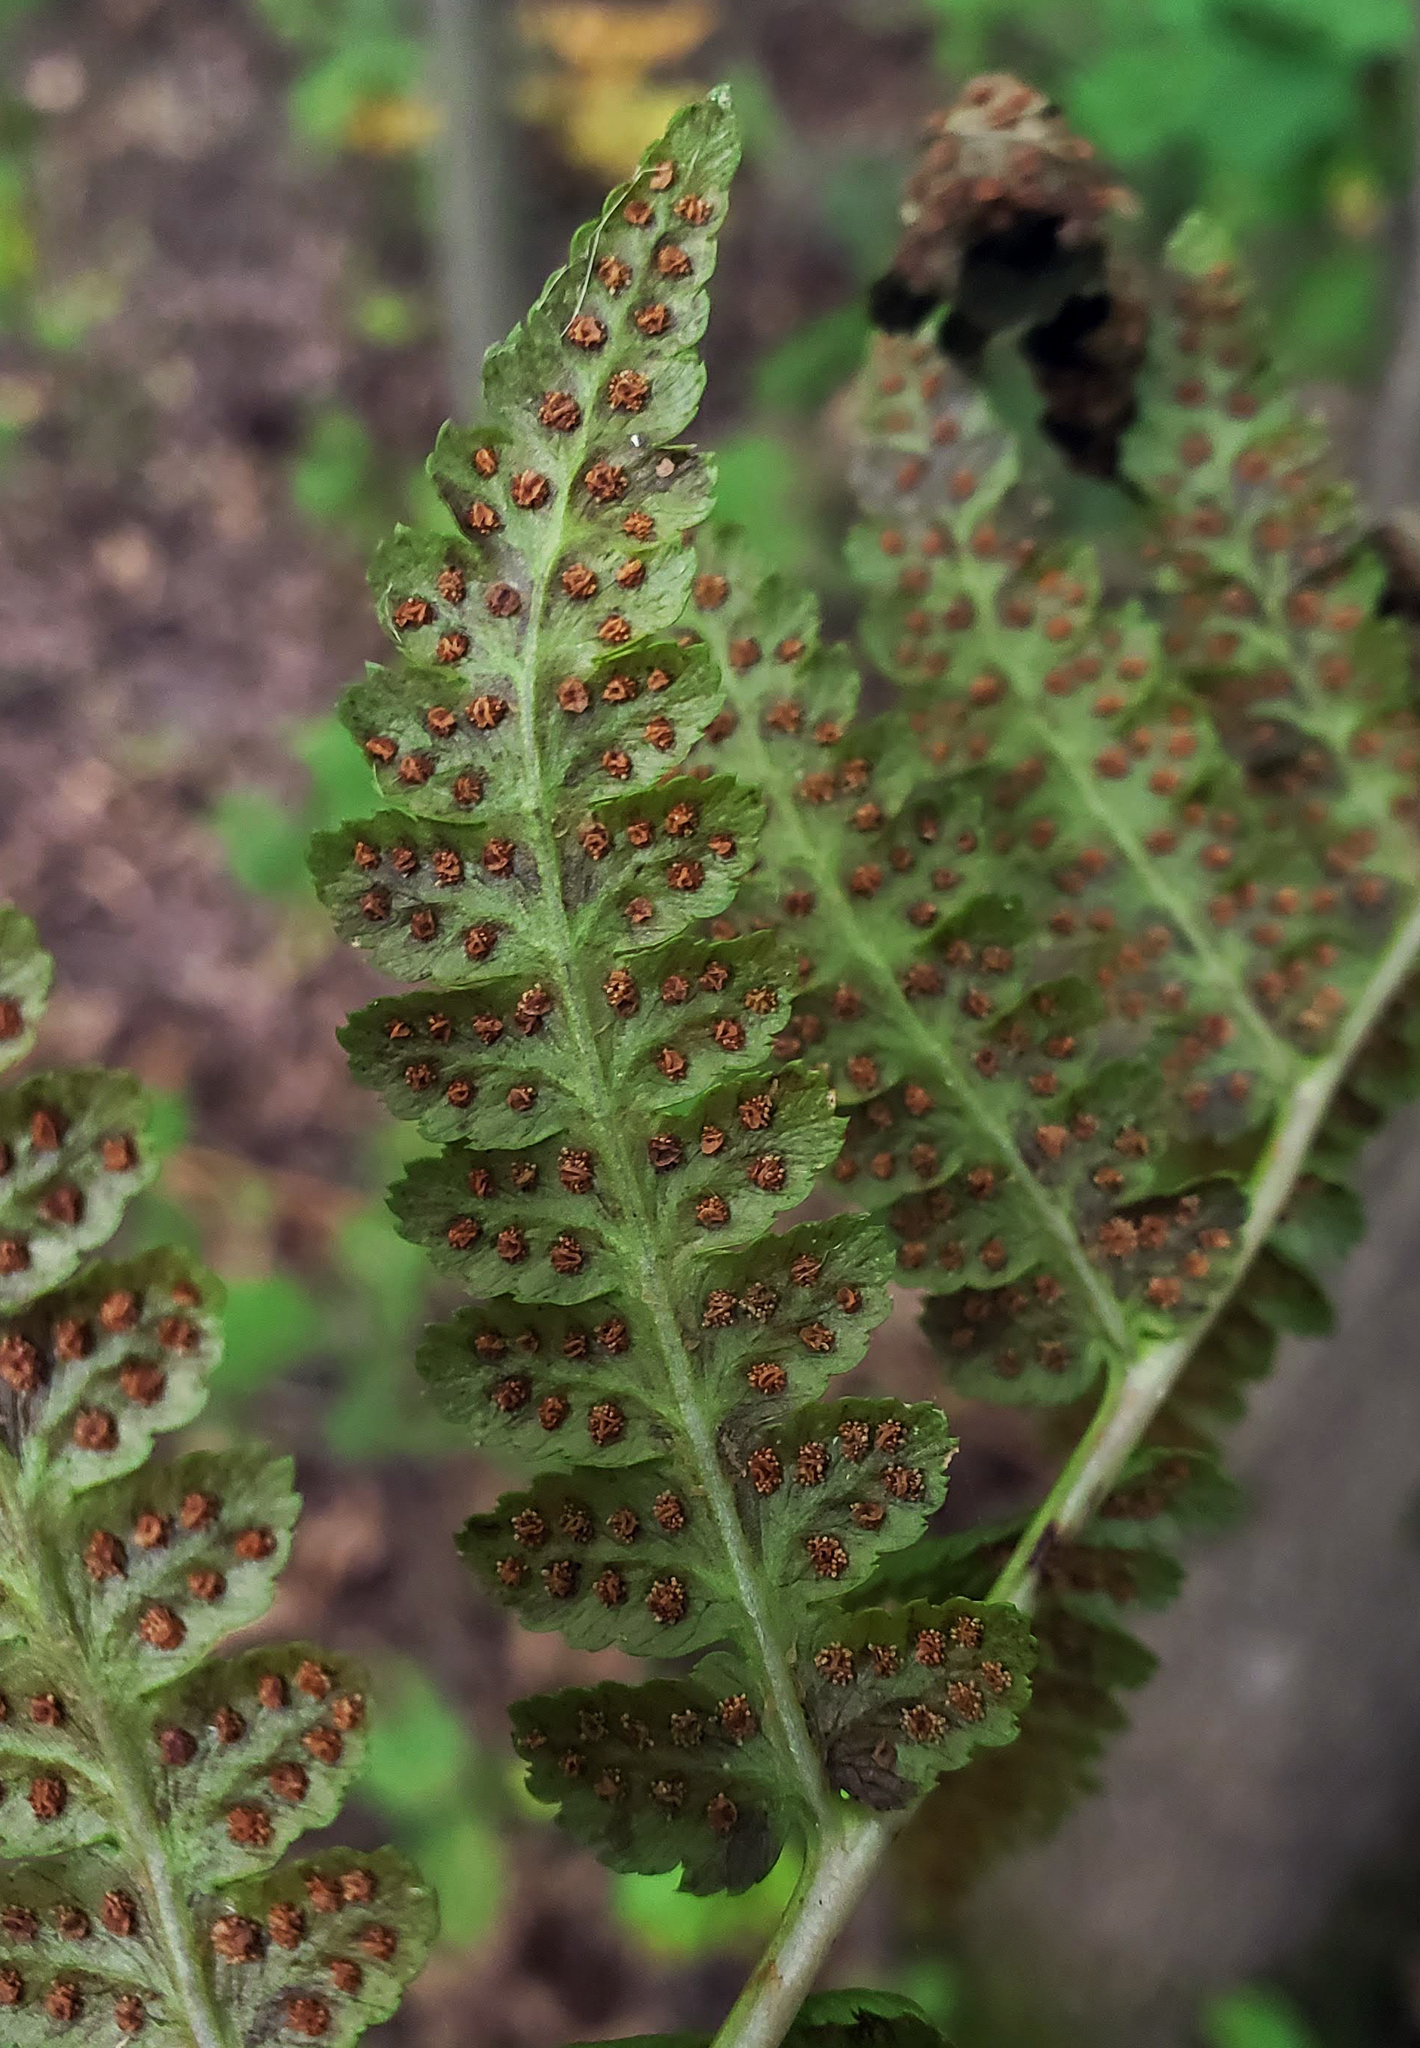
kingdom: Plantae
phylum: Tracheophyta
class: Polypodiopsida
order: Polypodiales
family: Dryopteridaceae
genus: Dryopteris
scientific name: Dryopteris cristata
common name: Crested wood fern
